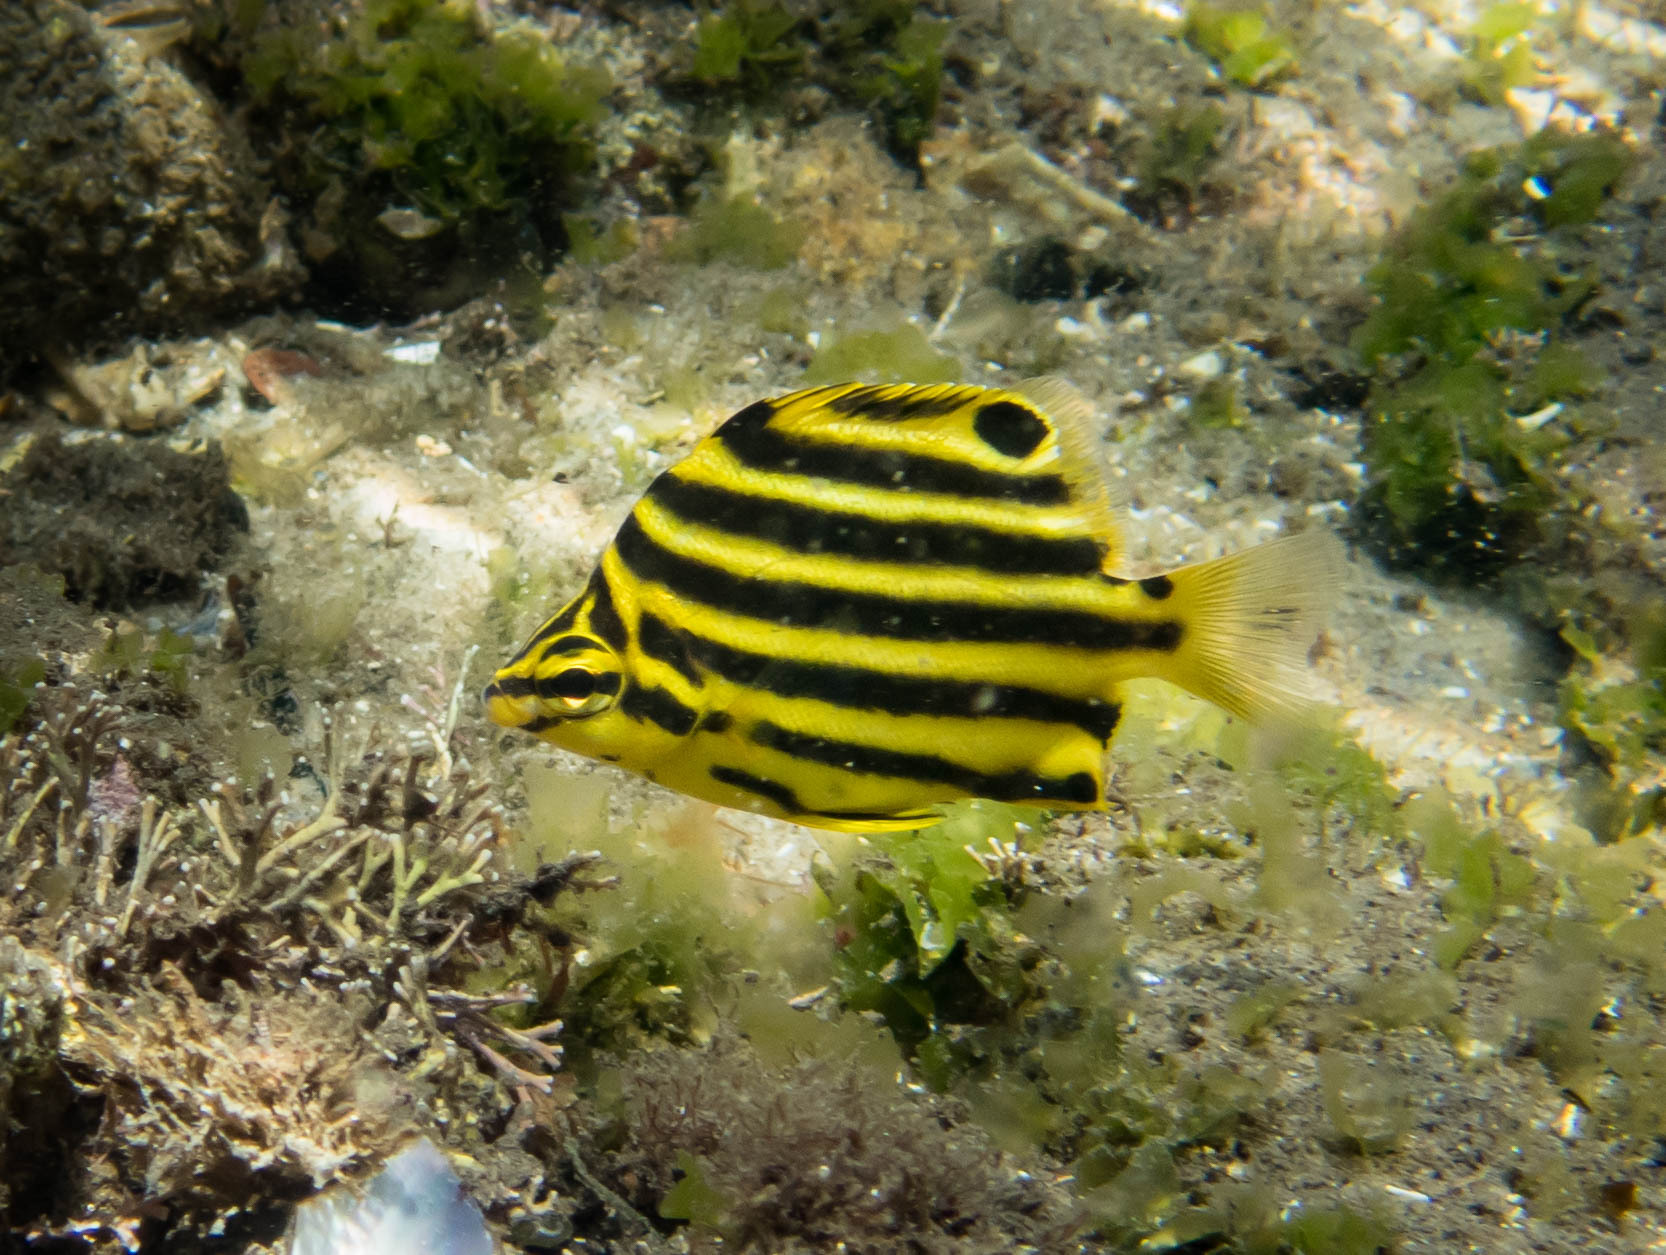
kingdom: Animalia
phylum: Chordata
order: Perciformes
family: Kyphosidae
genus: Microcanthus
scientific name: Microcanthus joyceae
